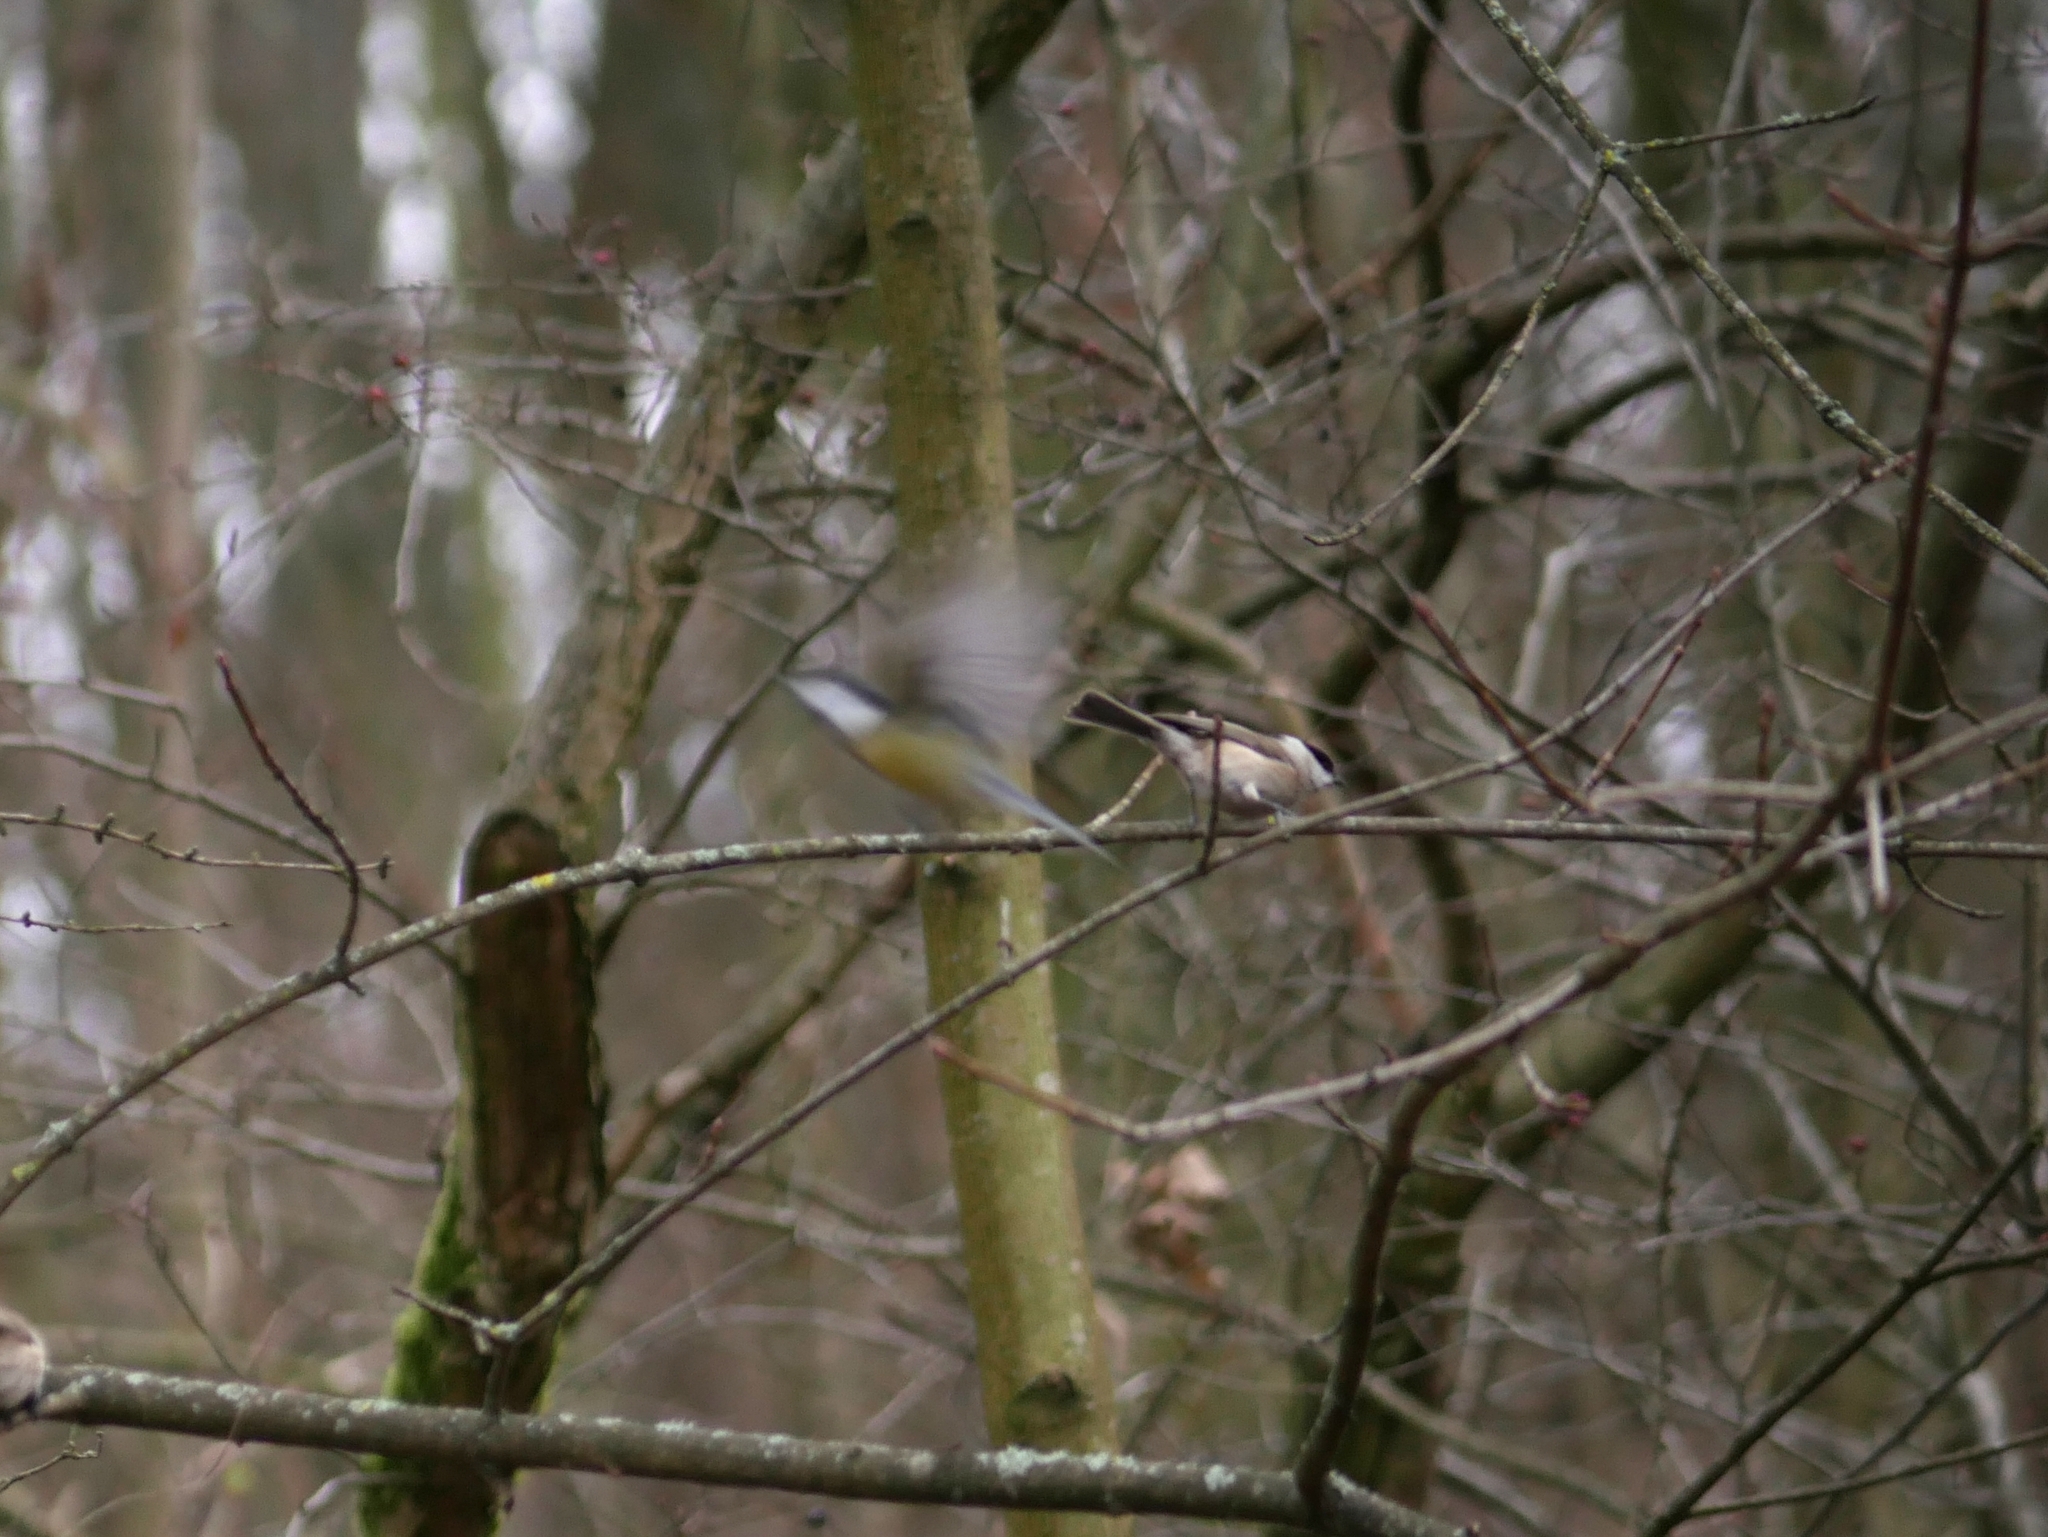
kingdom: Animalia
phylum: Chordata
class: Aves
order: Passeriformes
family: Paridae
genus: Poecile
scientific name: Poecile palustris
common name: Marsh tit
